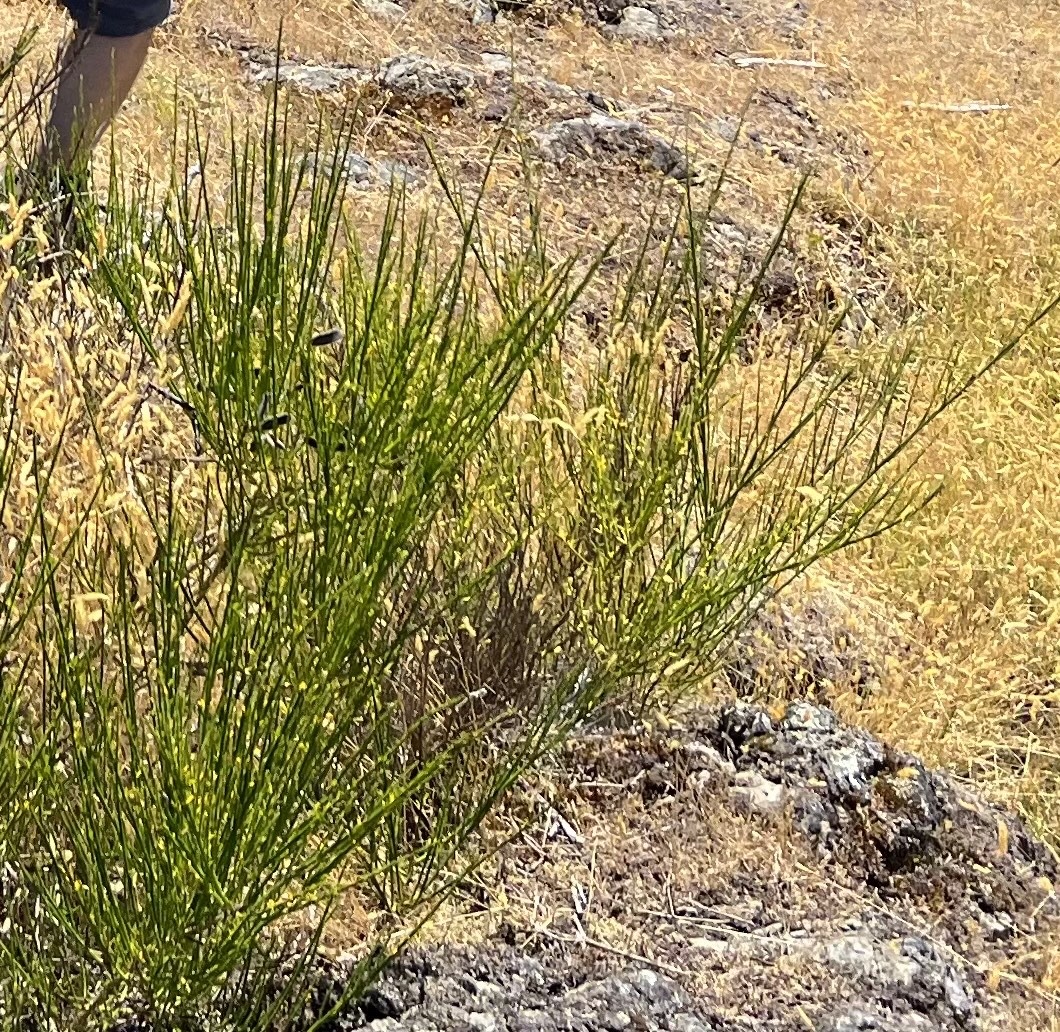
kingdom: Plantae
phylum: Tracheophyta
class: Magnoliopsida
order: Fabales
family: Fabaceae
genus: Cytisus
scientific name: Cytisus scoparius
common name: Scotch broom
